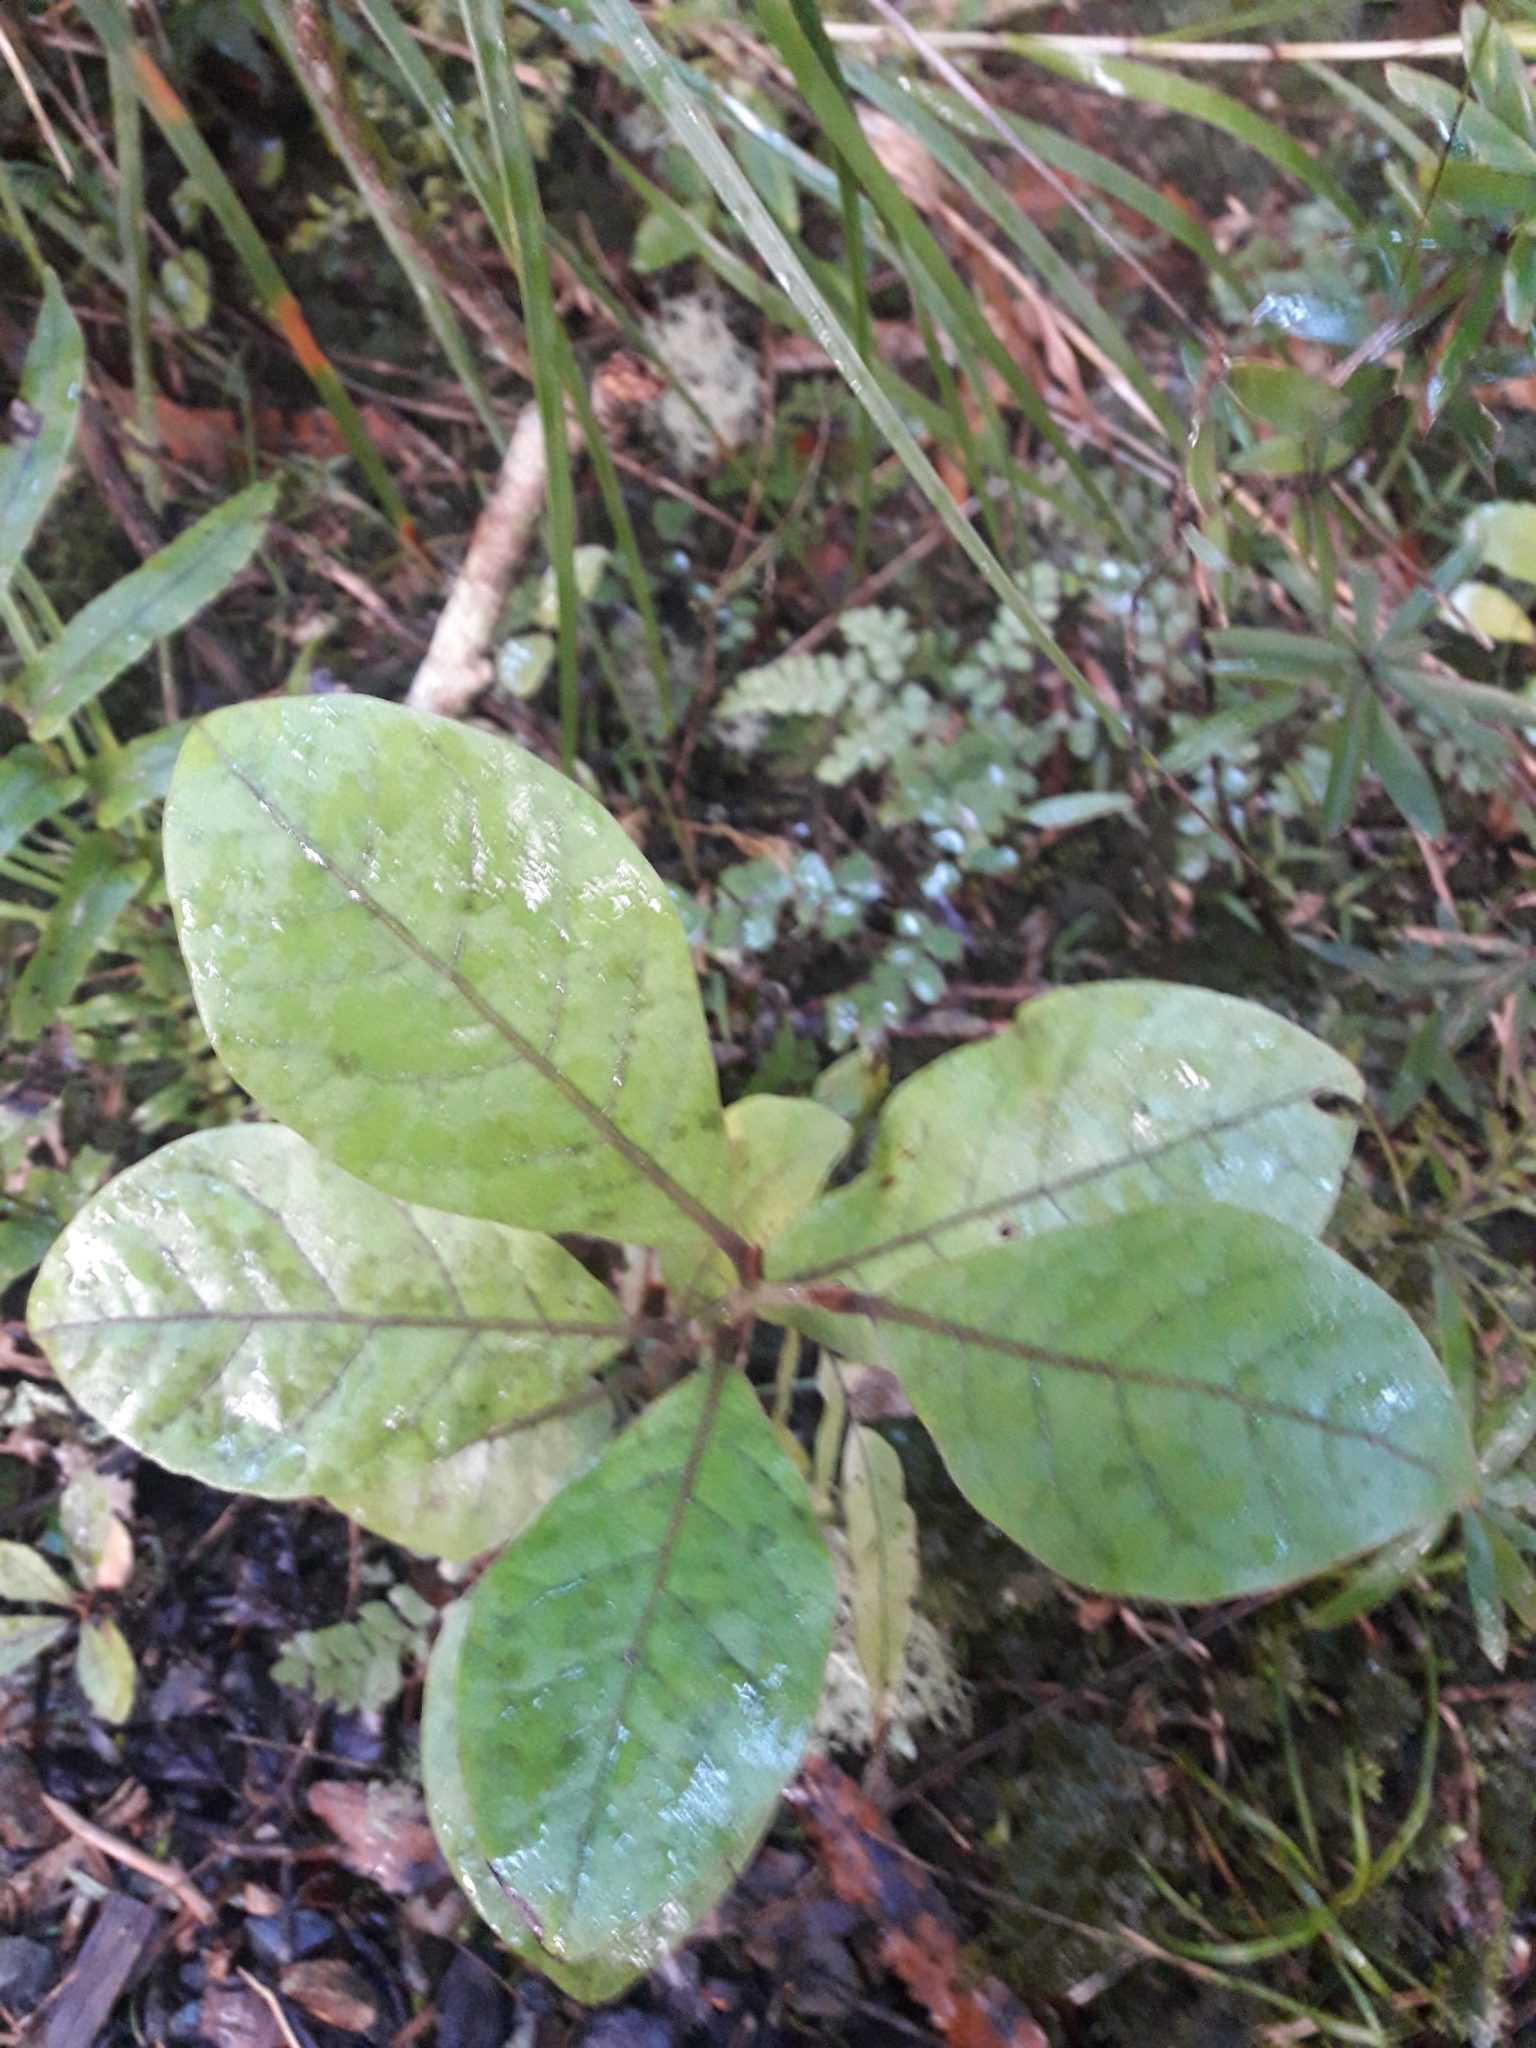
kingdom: Plantae
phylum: Tracheophyta
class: Magnoliopsida
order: Laurales
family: Lauraceae
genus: Beilschmiedia
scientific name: Beilschmiedia tarairi
